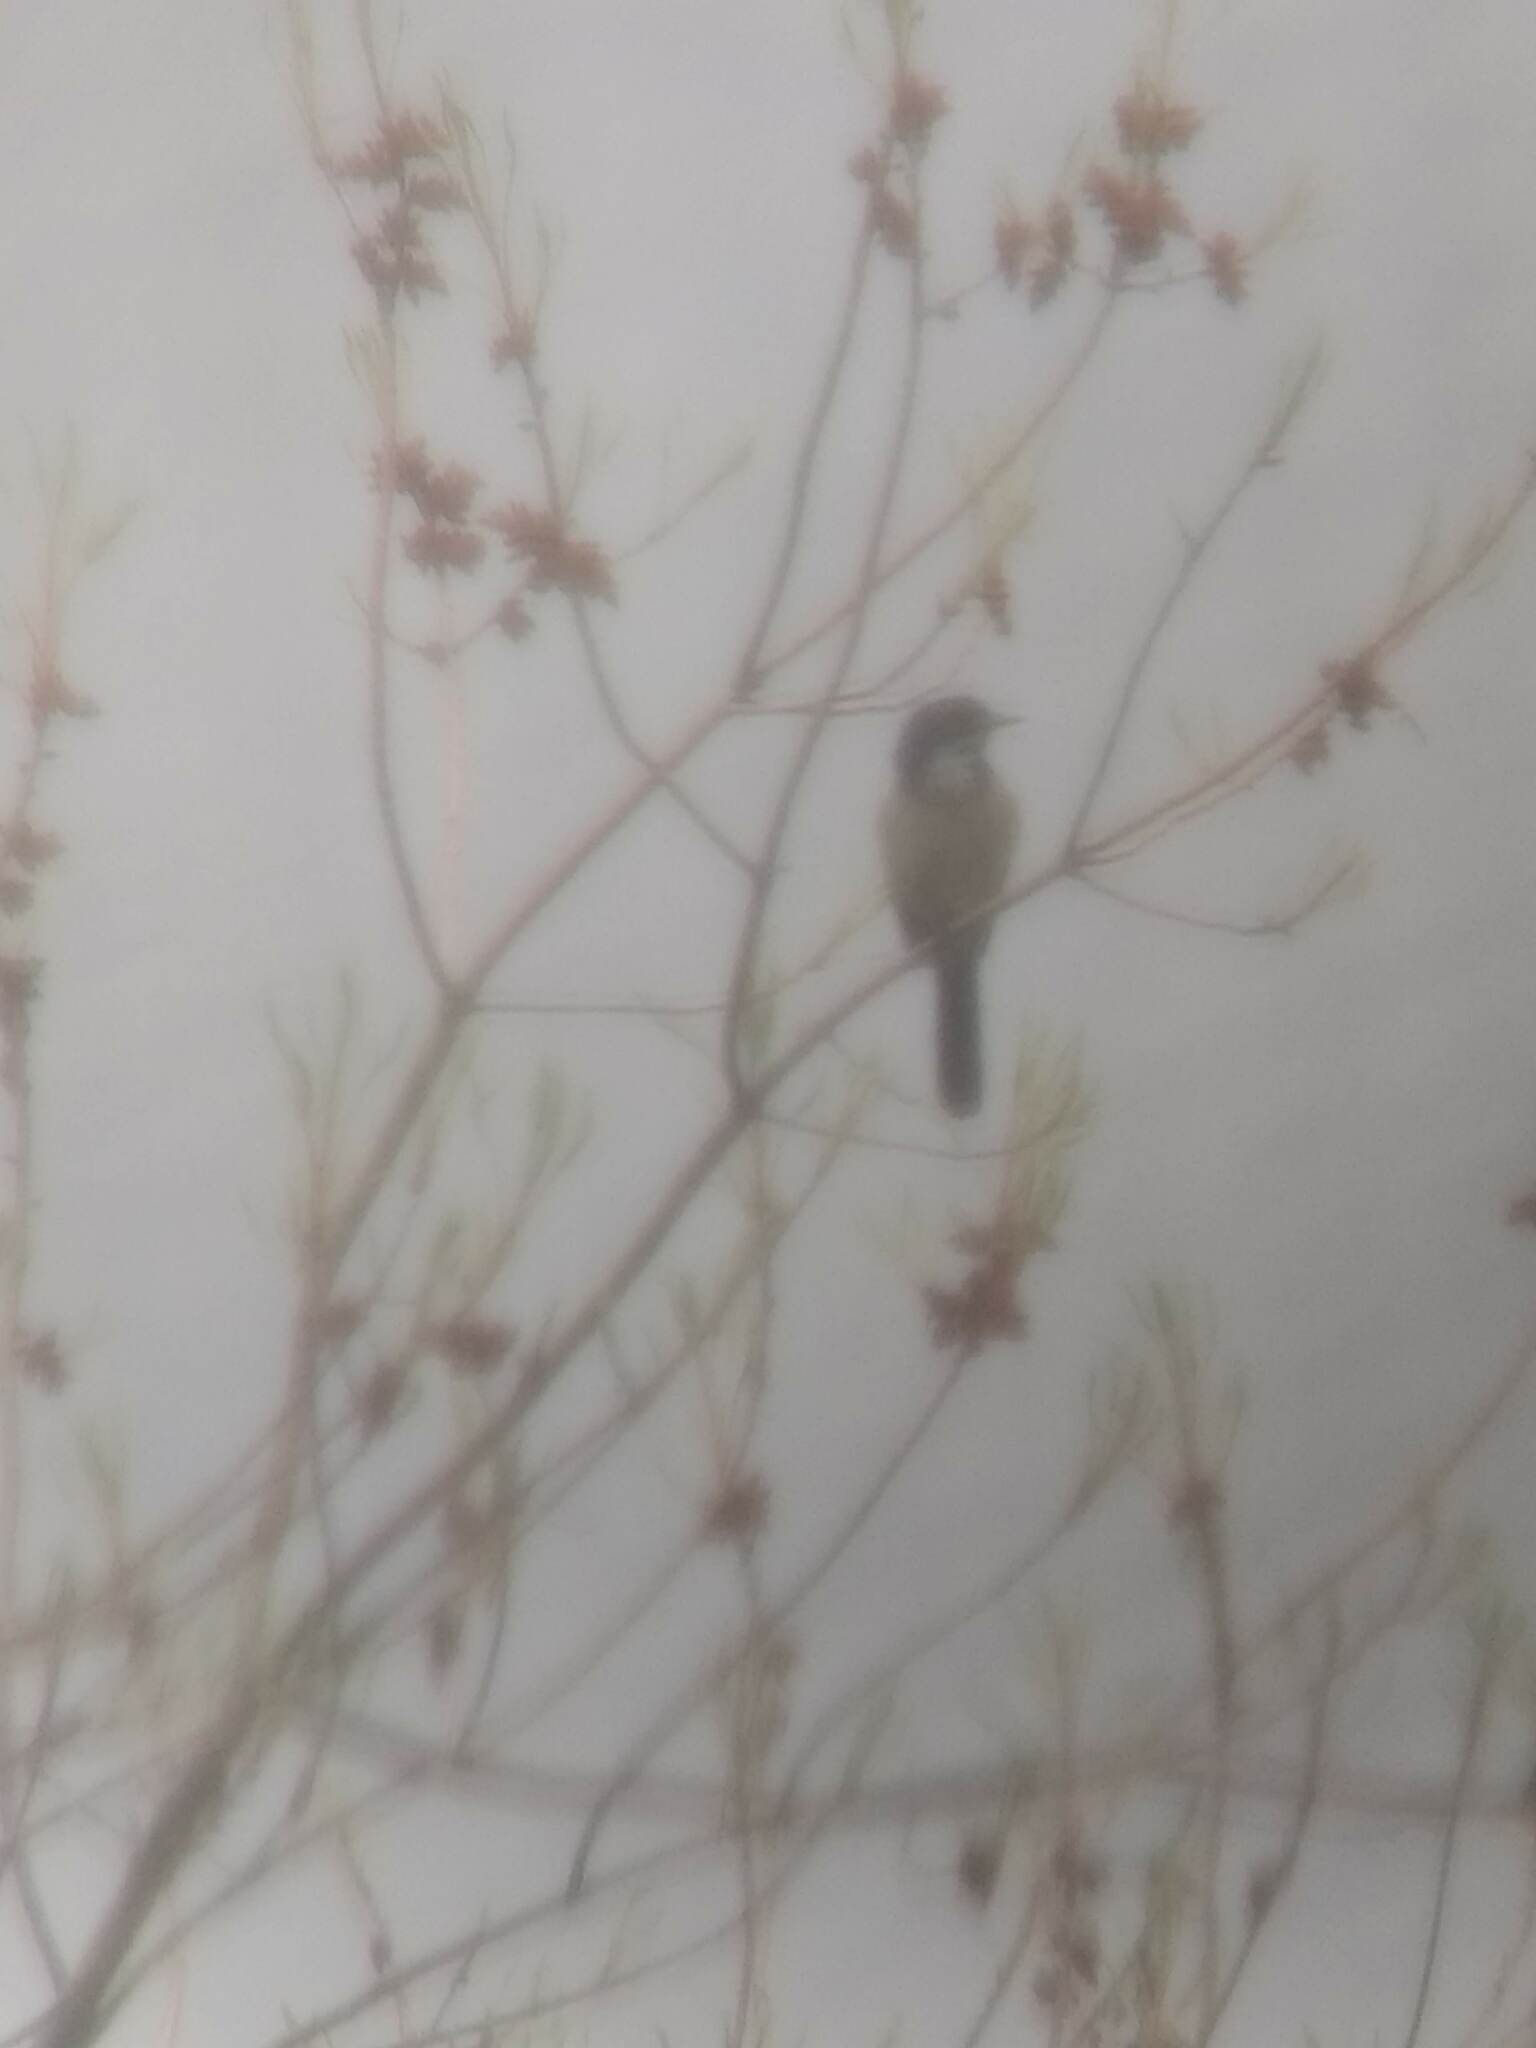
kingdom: Animalia
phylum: Chordata
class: Aves
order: Passeriformes
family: Corvidae
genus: Aphelocoma
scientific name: Aphelocoma californica
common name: California scrub-jay
